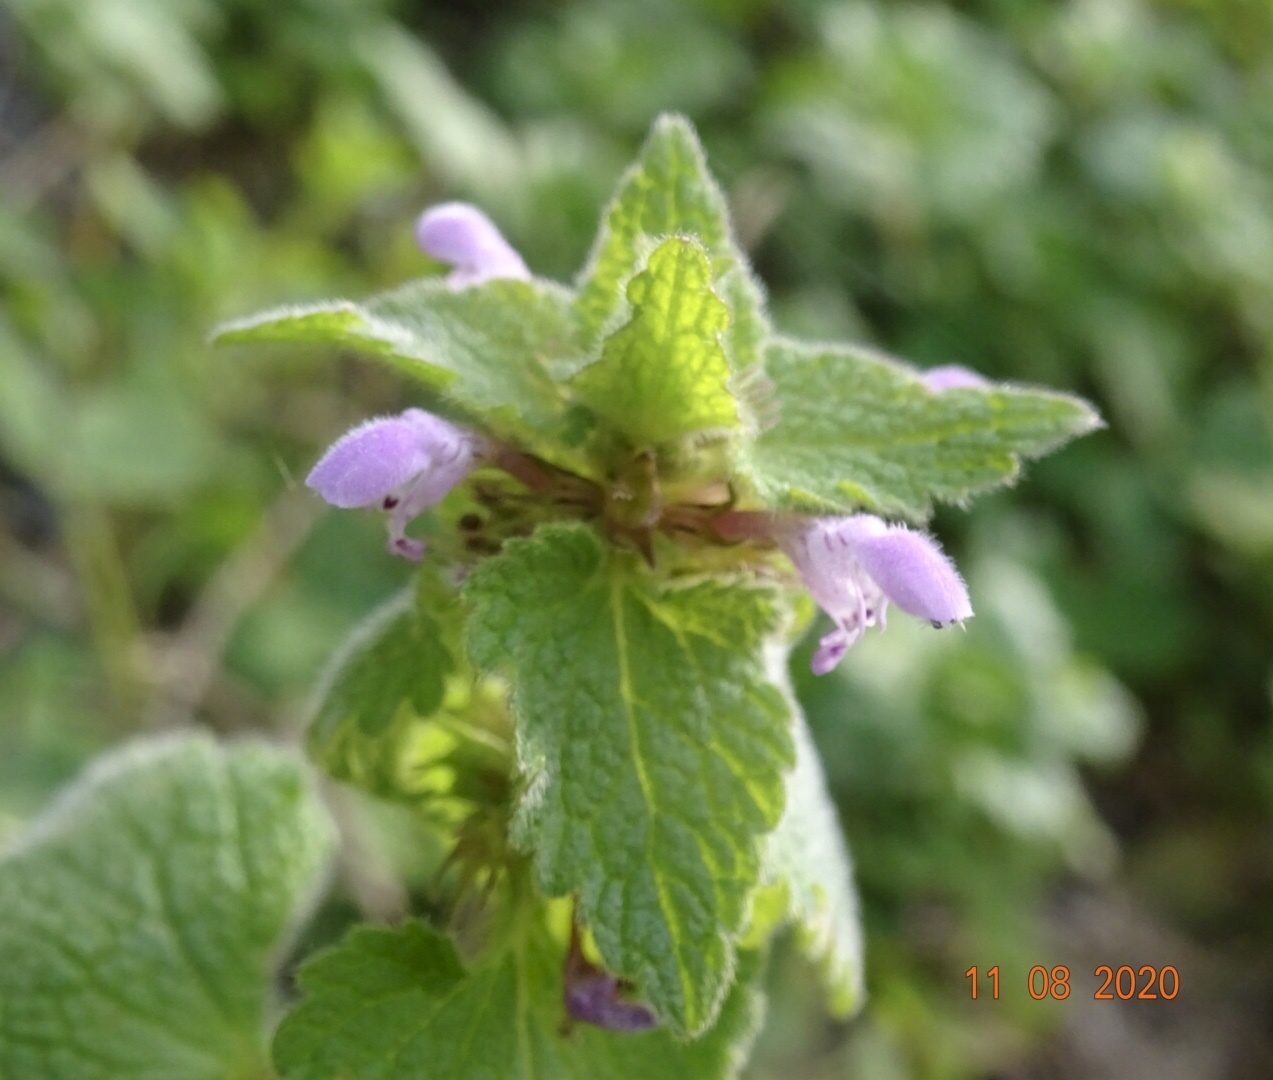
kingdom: Plantae
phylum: Tracheophyta
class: Magnoliopsida
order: Lamiales
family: Lamiaceae
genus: Lamium
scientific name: Lamium purpureum
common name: Red dead-nettle
